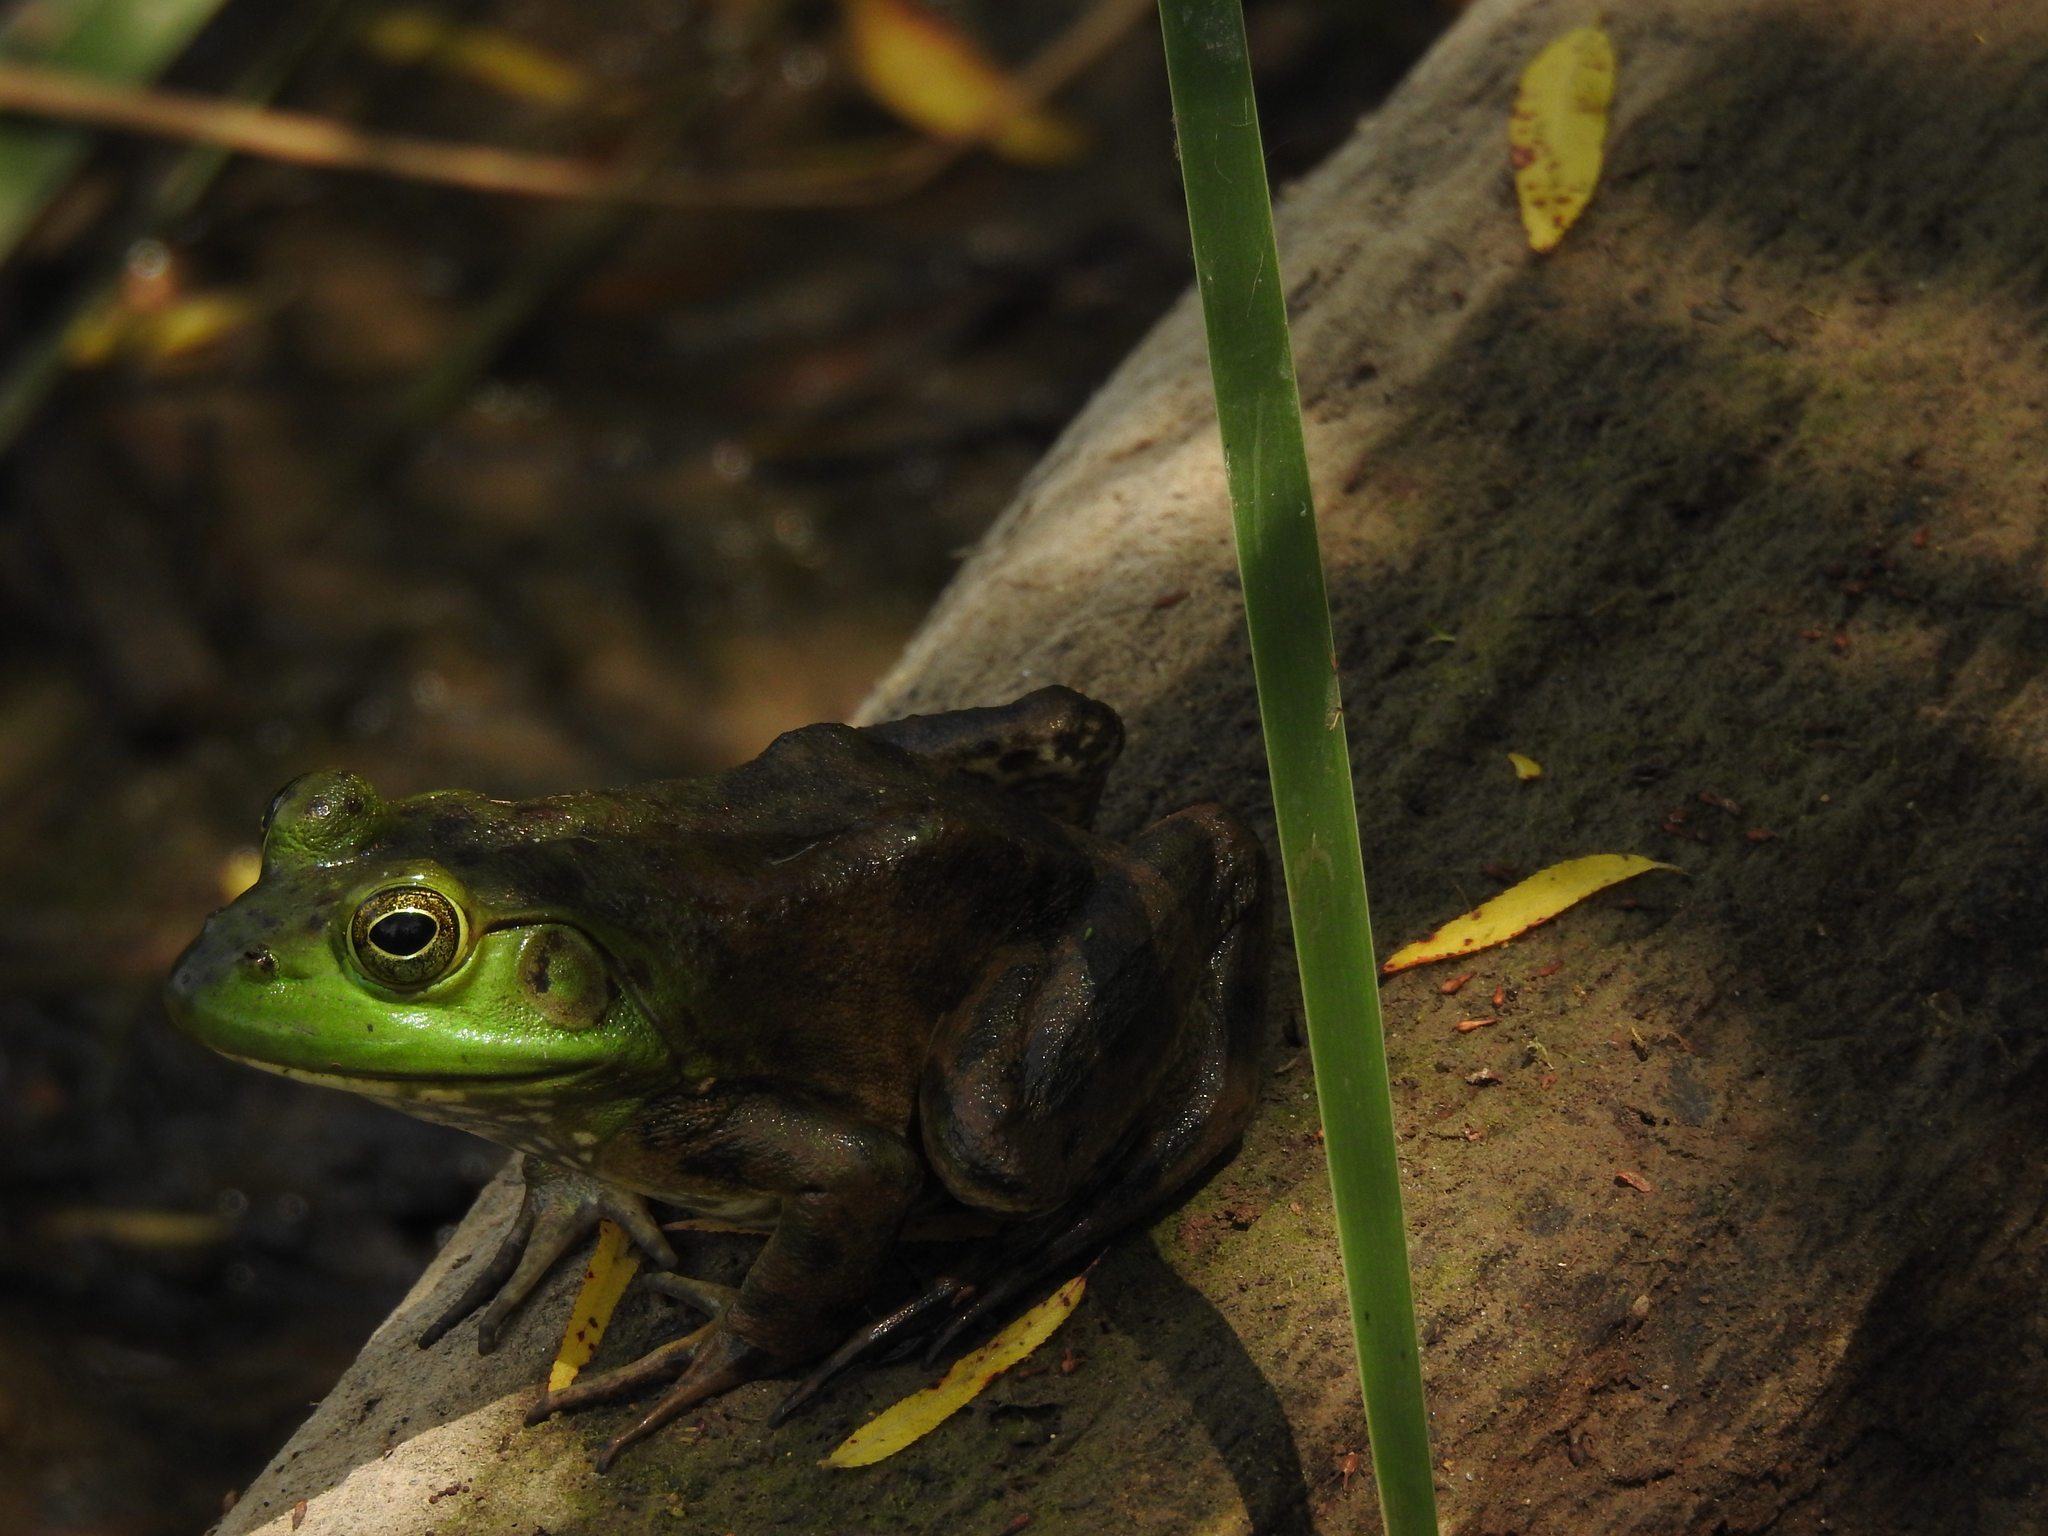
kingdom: Animalia
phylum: Chordata
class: Amphibia
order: Anura
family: Ranidae
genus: Lithobates
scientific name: Lithobates catesbeianus
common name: American bullfrog
